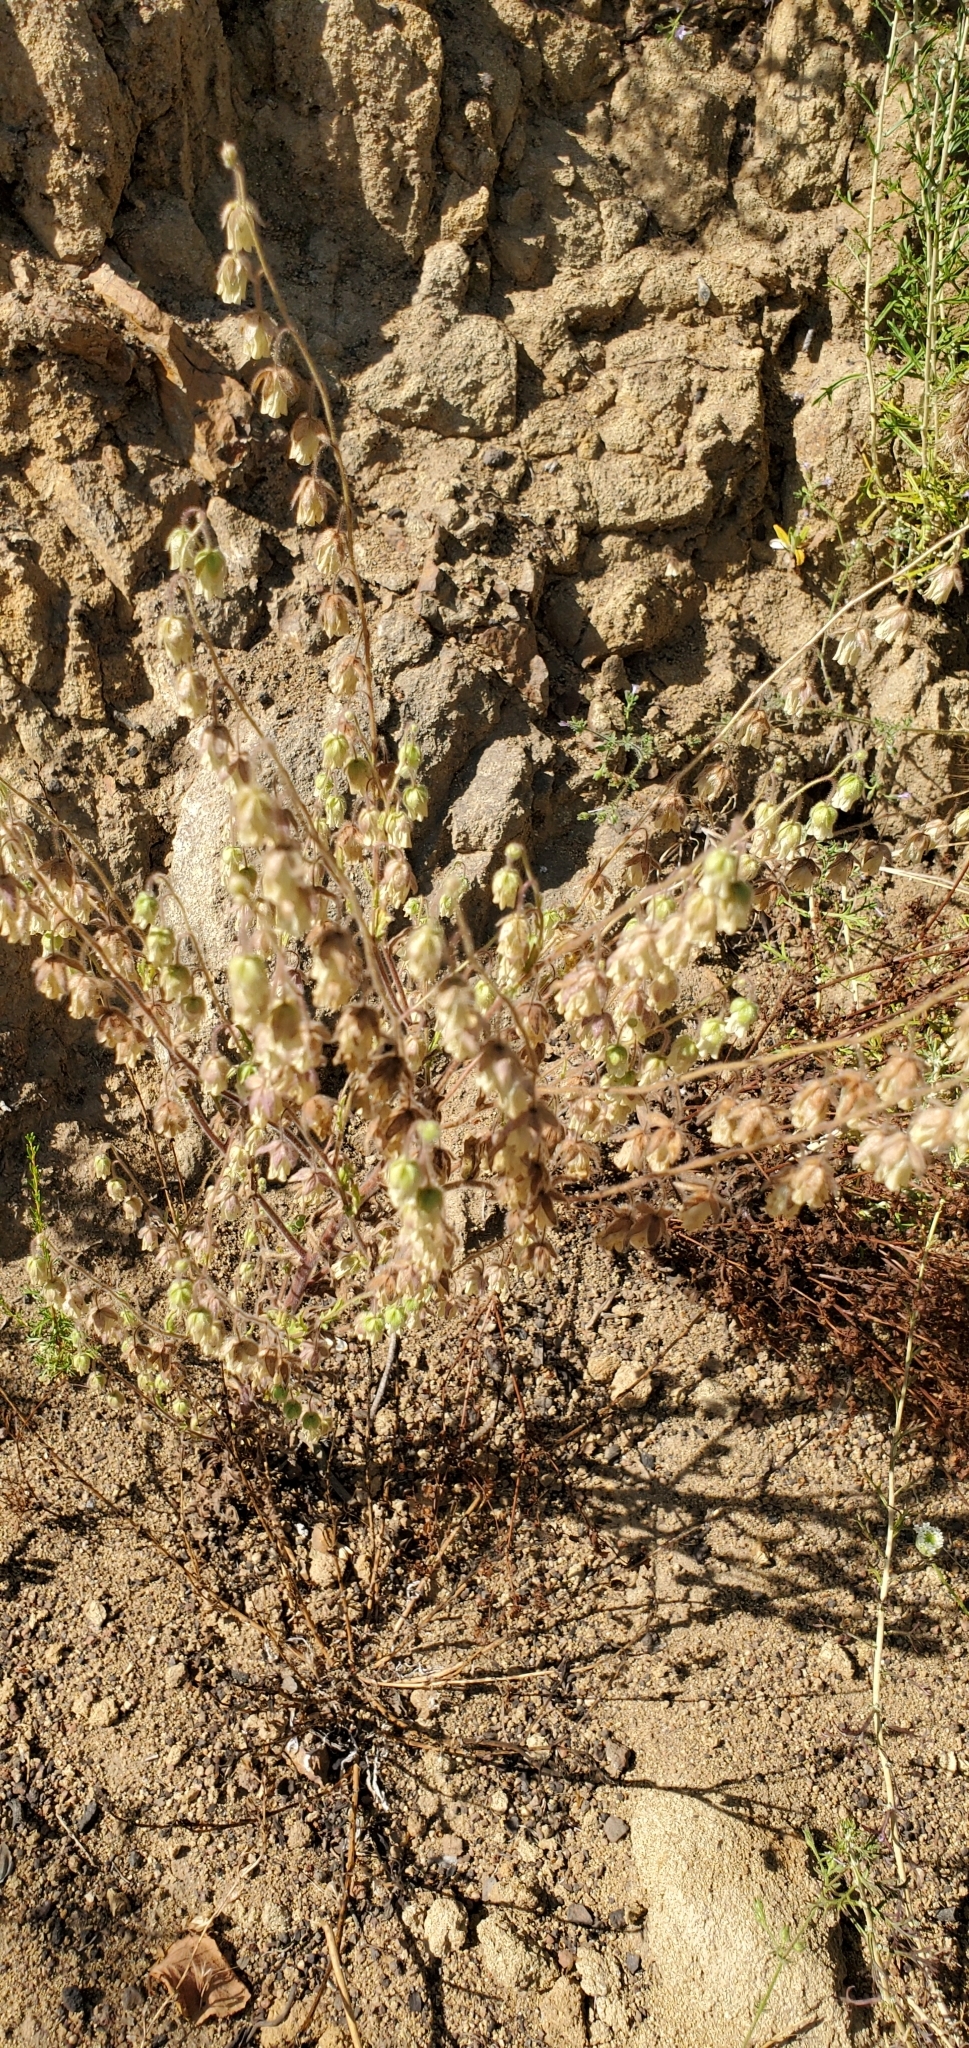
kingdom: Plantae
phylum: Tracheophyta
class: Magnoliopsida
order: Boraginales
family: Hydrophyllaceae
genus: Emmenanthe
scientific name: Emmenanthe penduliflora
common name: Whispering-bells
